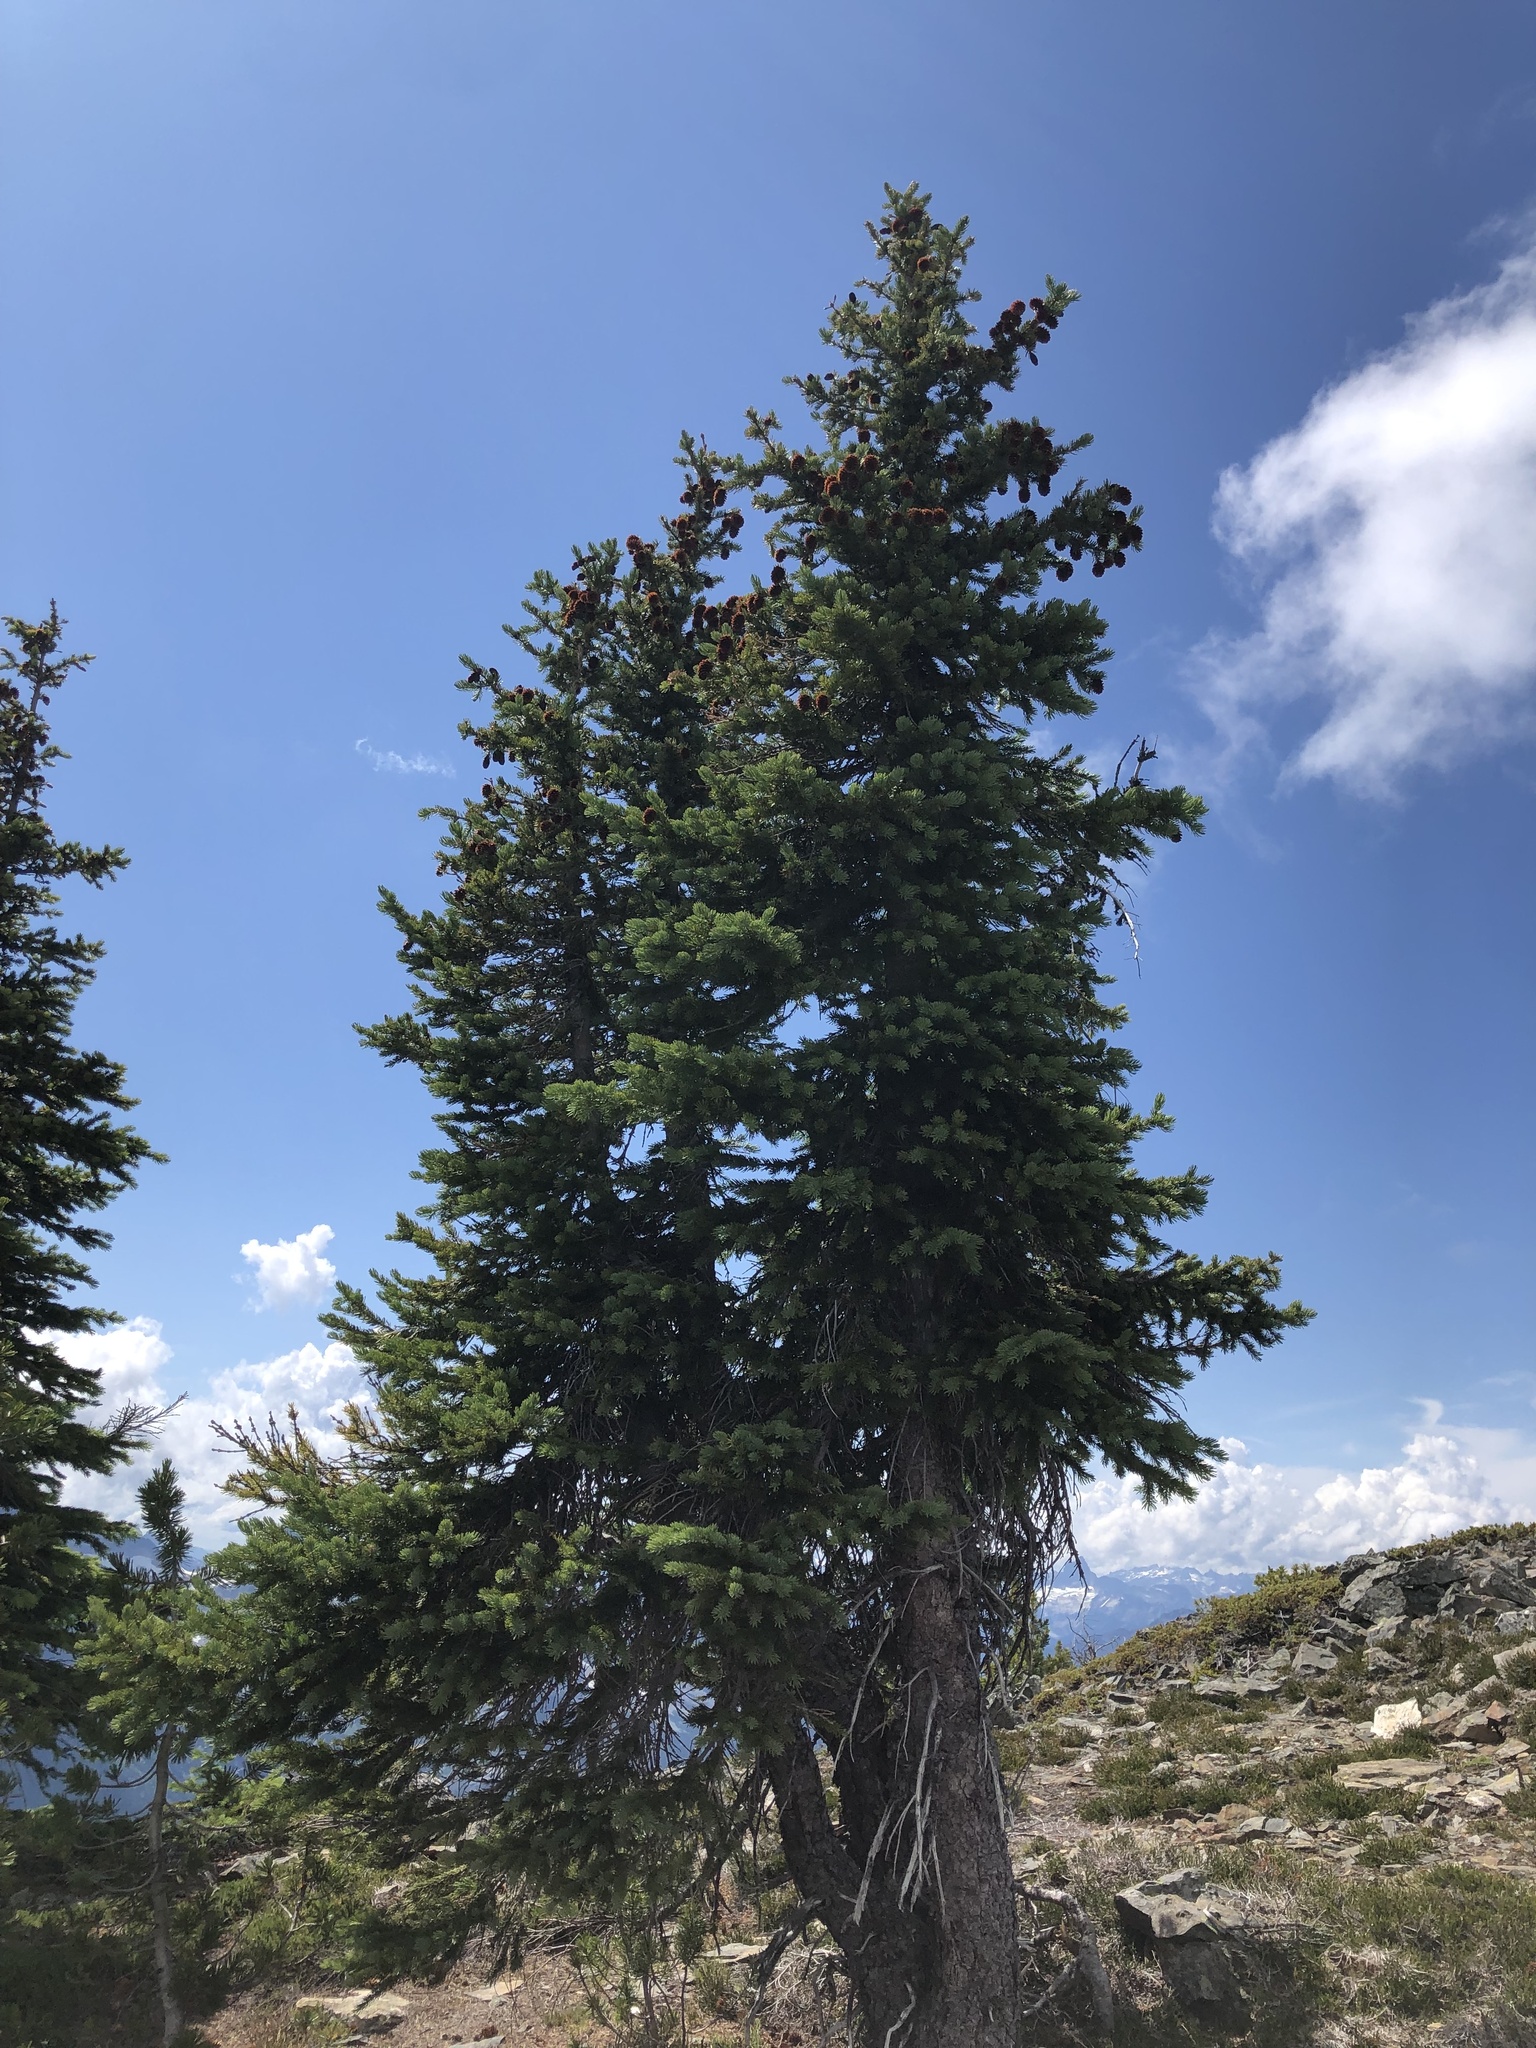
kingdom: Plantae
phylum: Tracheophyta
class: Pinopsida
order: Pinales
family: Pinaceae
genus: Picea
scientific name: Picea engelmannii
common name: Engelmann spruce
